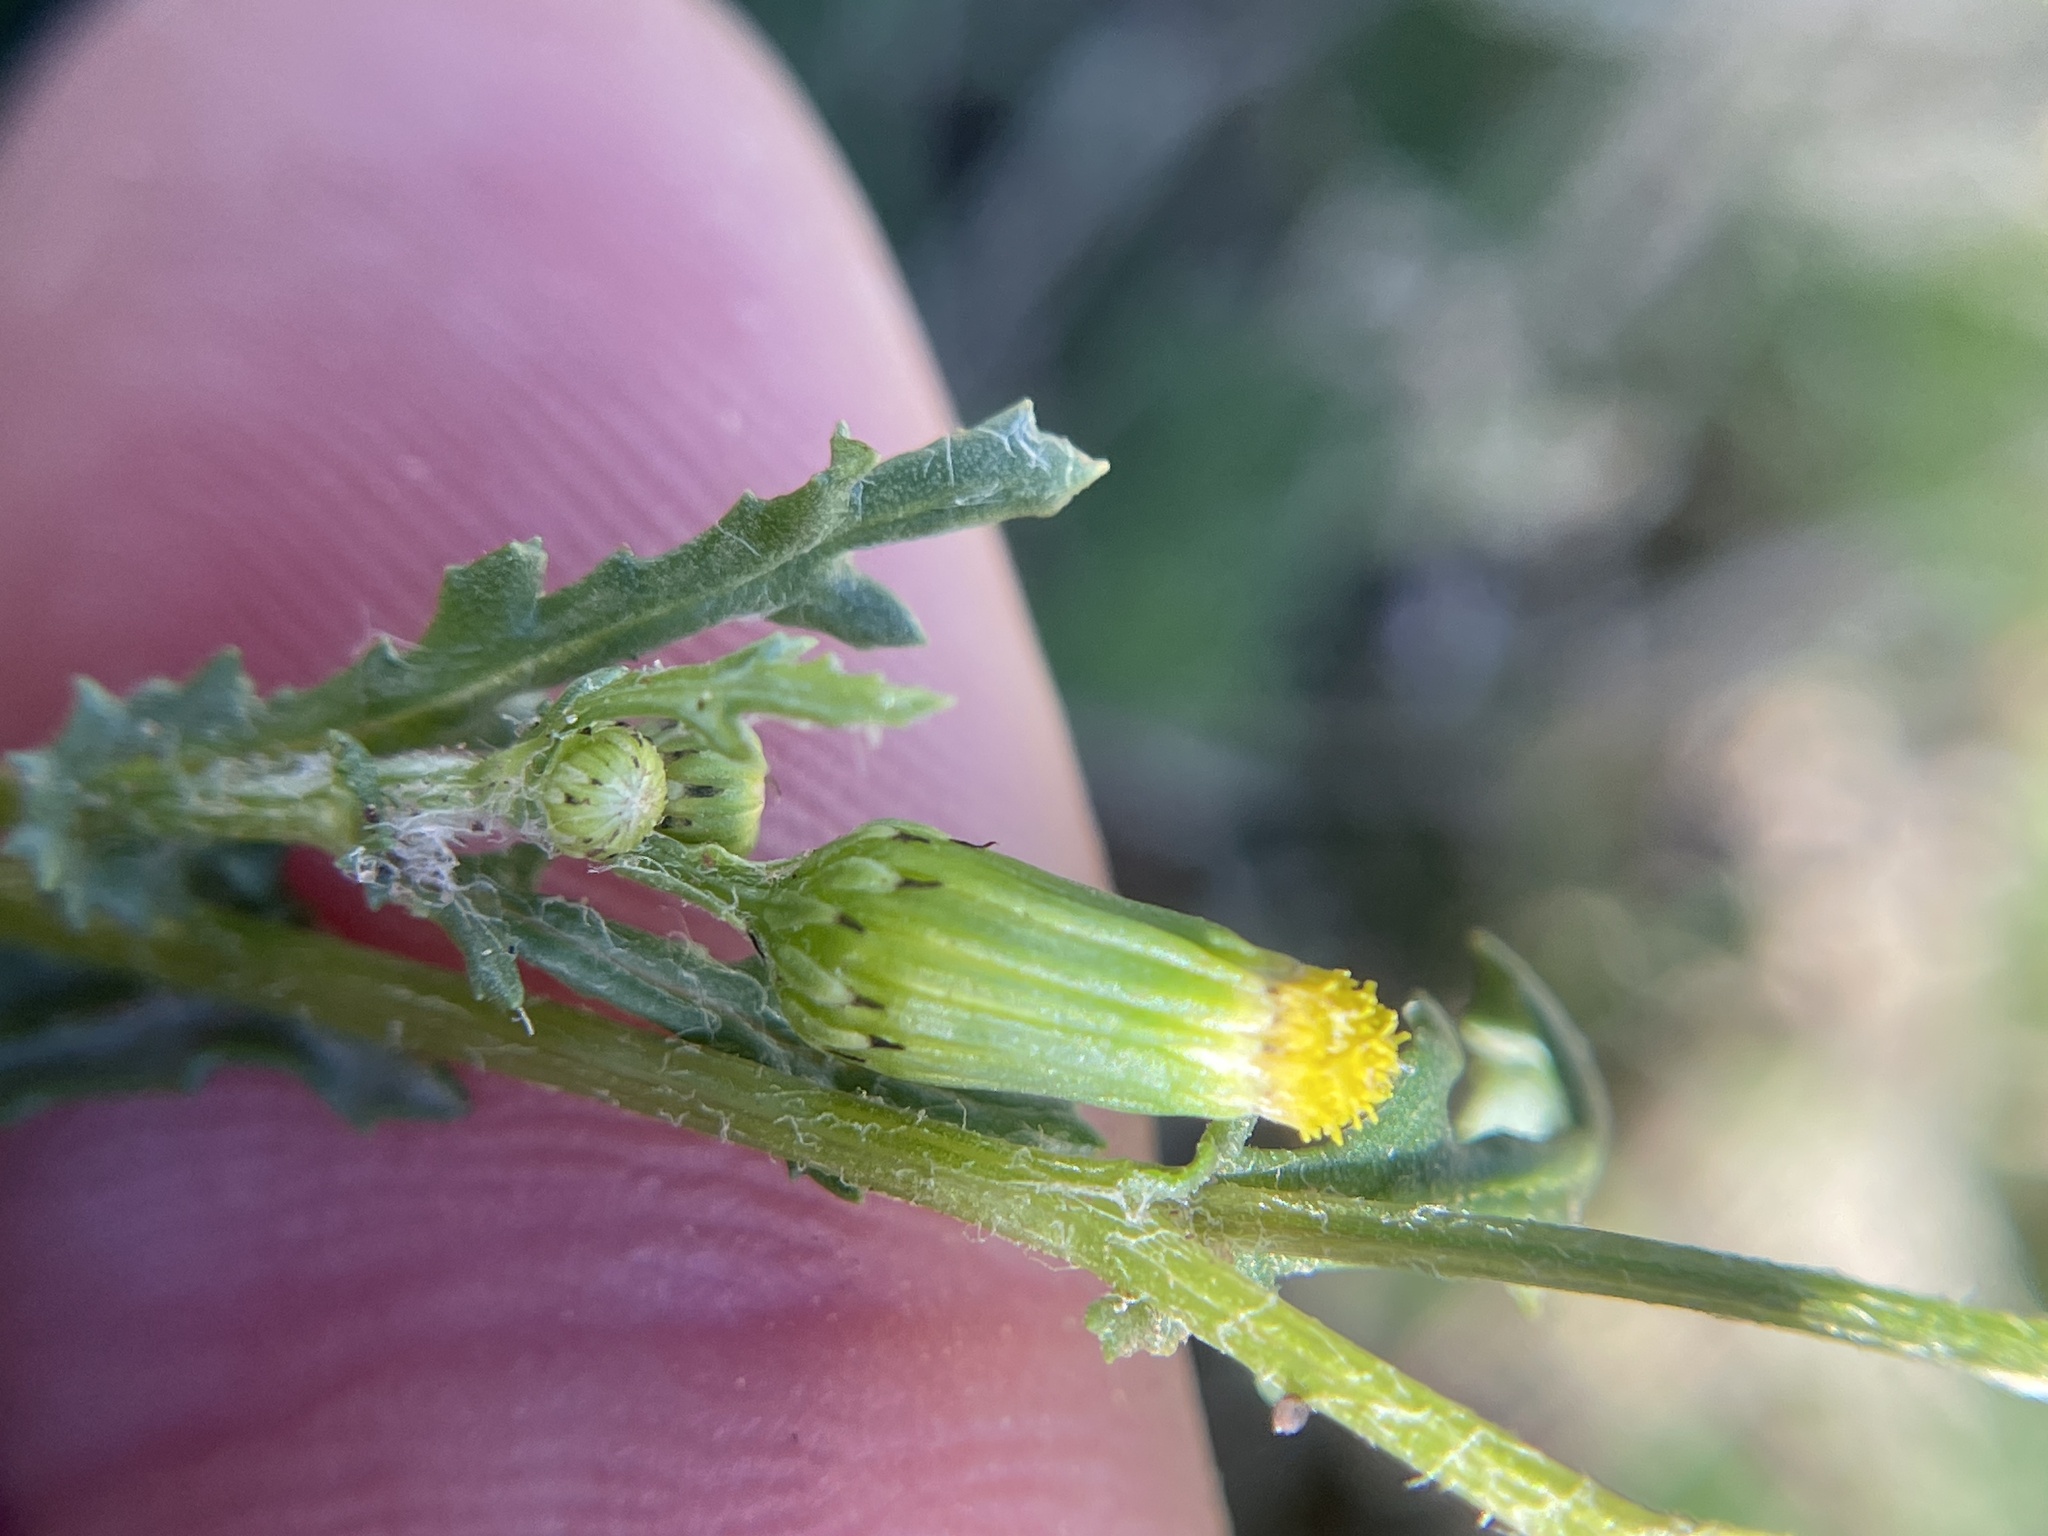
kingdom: Plantae
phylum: Tracheophyta
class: Magnoliopsida
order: Asterales
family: Asteraceae
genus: Senecio
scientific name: Senecio vulgaris
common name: Old-man-in-the-spring
